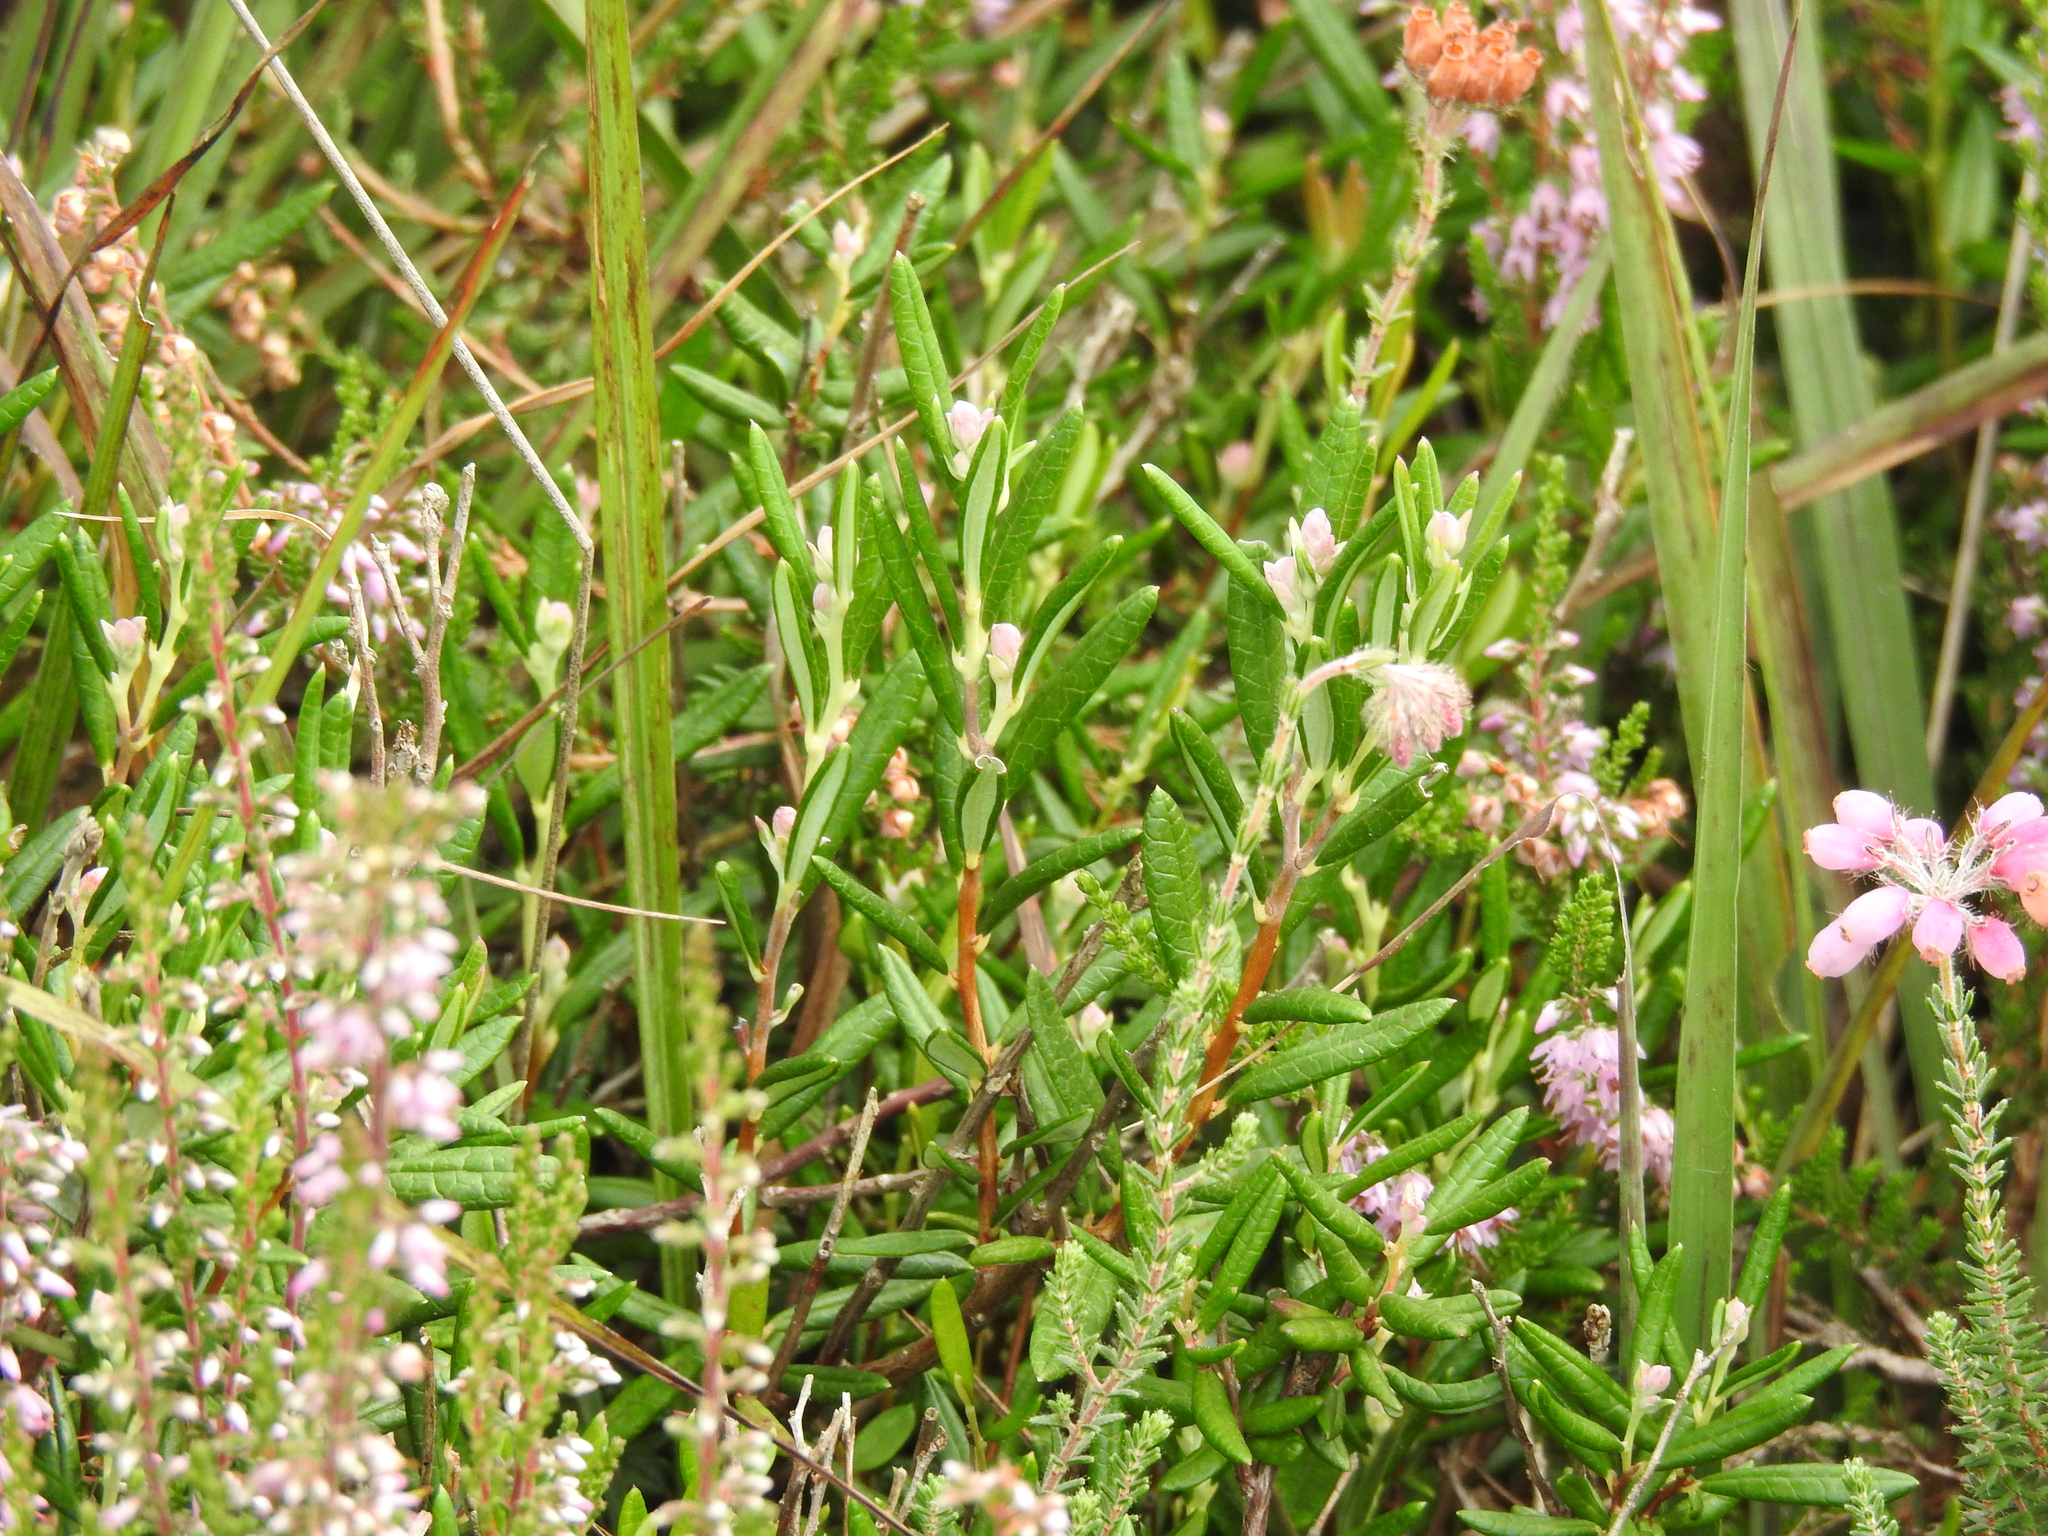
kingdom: Plantae
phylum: Tracheophyta
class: Magnoliopsida
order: Ericales
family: Ericaceae
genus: Andromeda
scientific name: Andromeda polifolia
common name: Bog-rosemary
